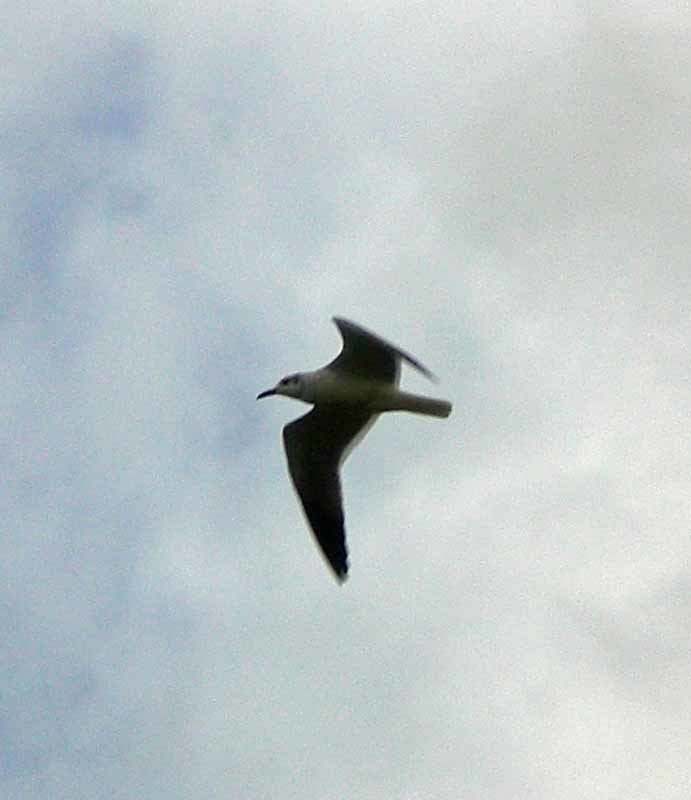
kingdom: Animalia
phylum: Chordata
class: Aves
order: Charadriiformes
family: Laridae
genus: Leucophaeus
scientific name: Leucophaeus atricilla
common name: Laughing gull
